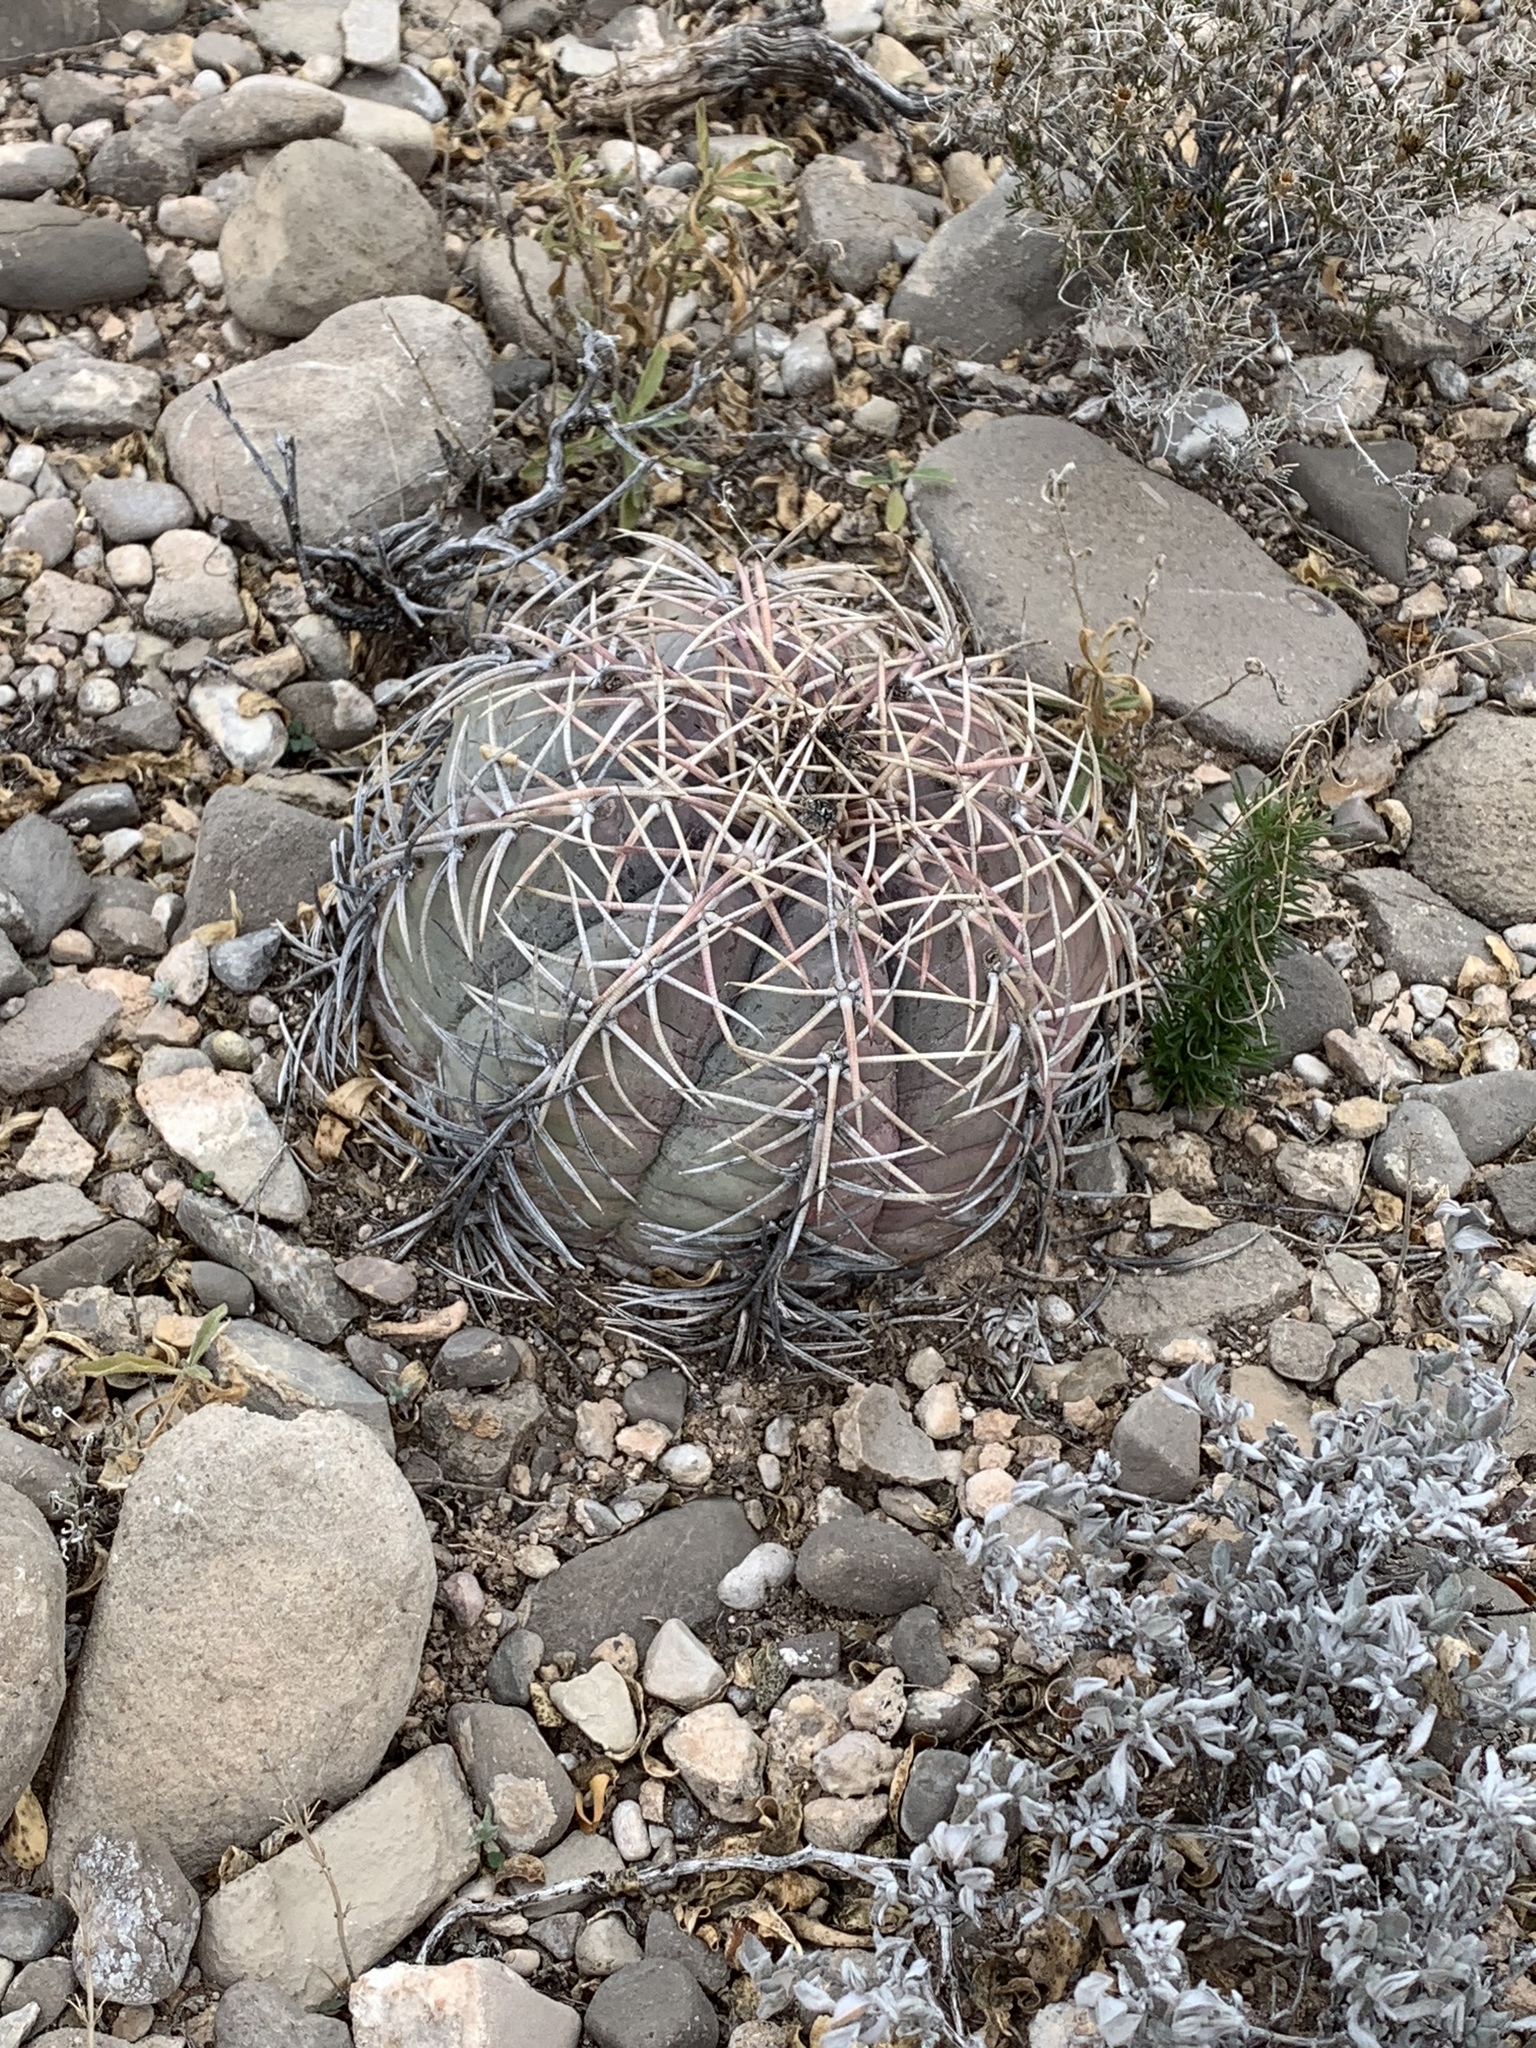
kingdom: Plantae
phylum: Tracheophyta
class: Magnoliopsida
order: Caryophyllales
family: Cactaceae
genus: Echinocactus
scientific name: Echinocactus horizonthalonius
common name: Devilshead
